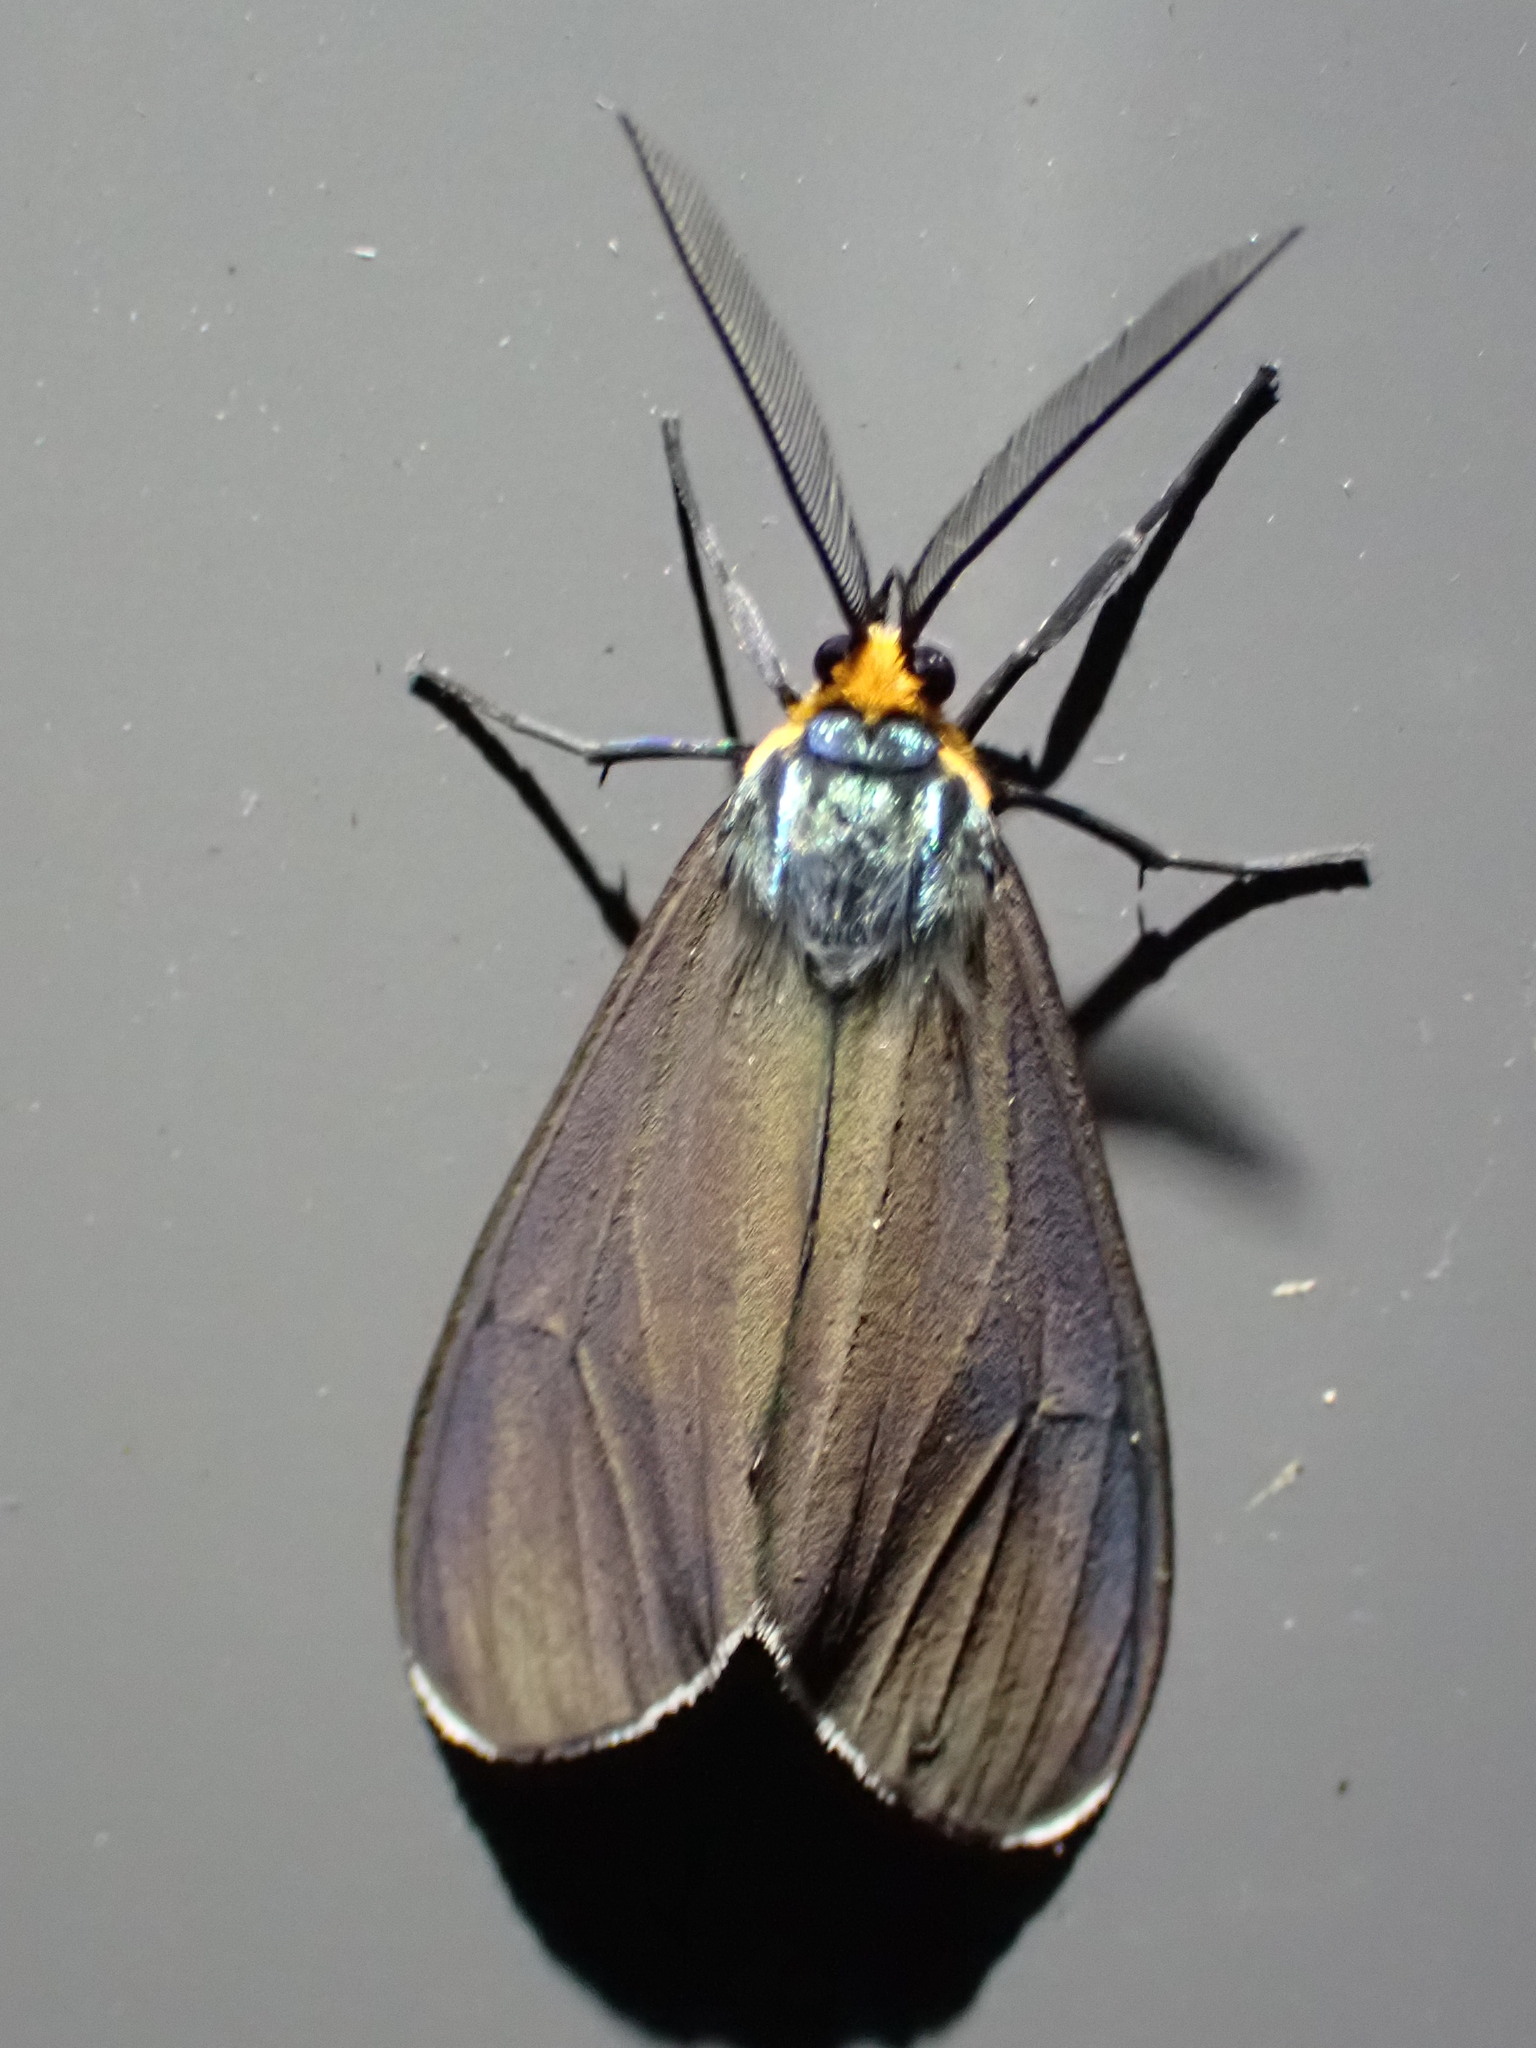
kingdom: Animalia
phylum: Arthropoda
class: Insecta
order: Lepidoptera
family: Erebidae
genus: Ctenucha
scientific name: Ctenucha virginica
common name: Virginia ctenucha moth
